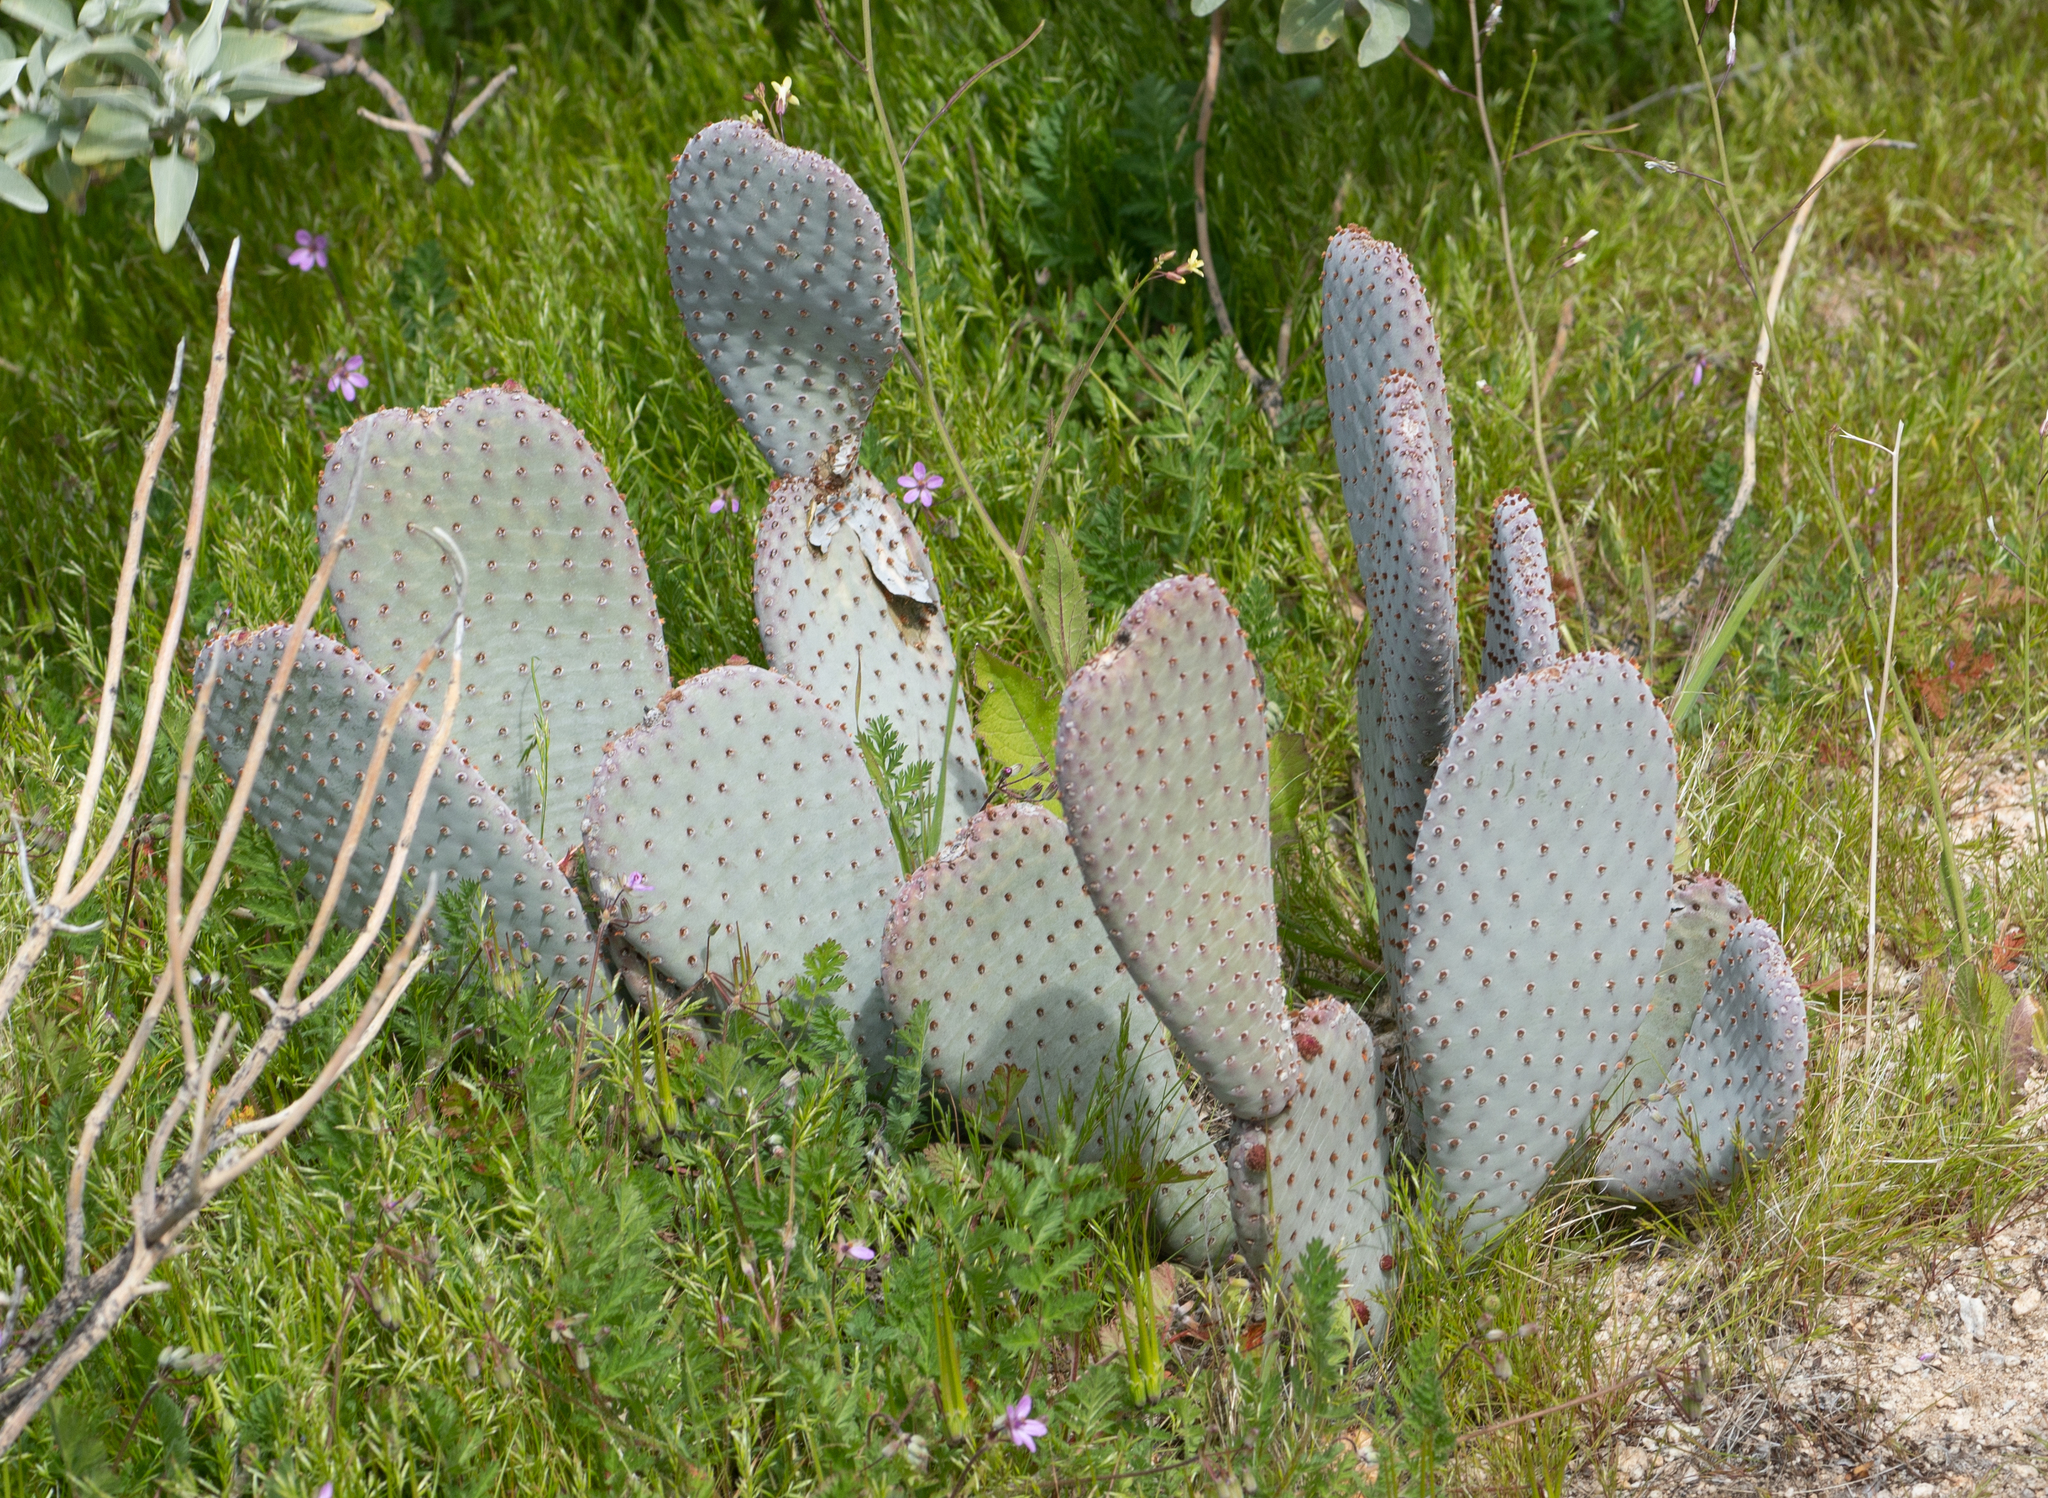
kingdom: Plantae
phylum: Tracheophyta
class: Magnoliopsida
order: Caryophyllales
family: Cactaceae
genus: Opuntia
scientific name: Opuntia basilaris
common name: Beavertail prickly-pear
